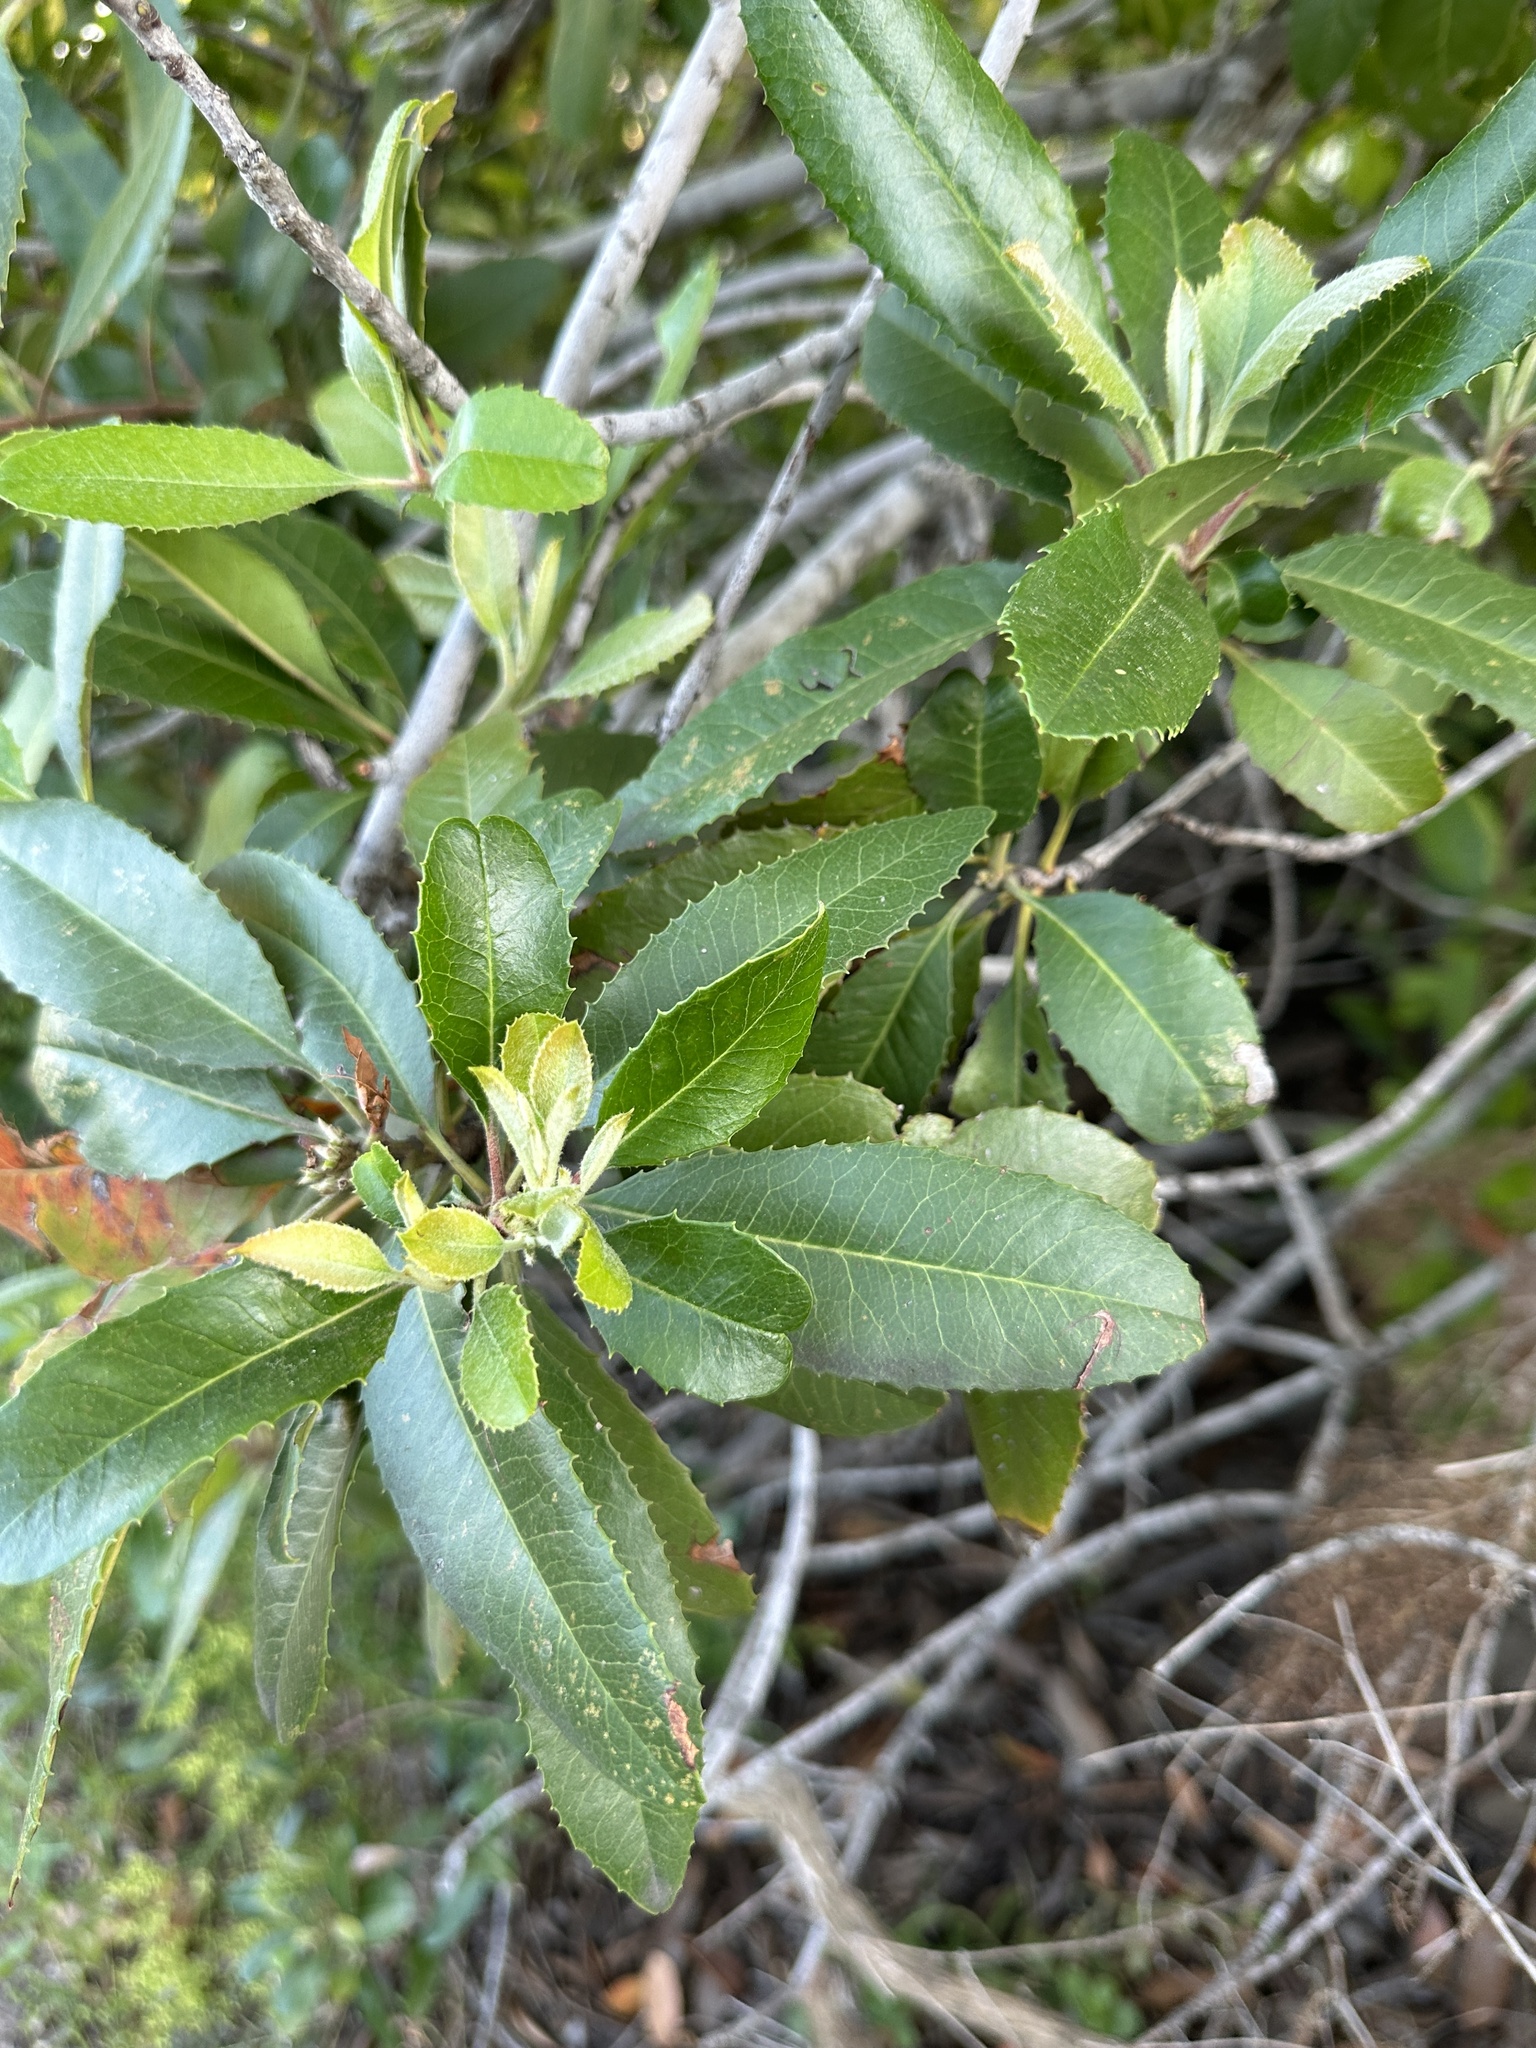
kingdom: Plantae
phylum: Tracheophyta
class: Magnoliopsida
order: Rosales
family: Rosaceae
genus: Heteromeles
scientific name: Heteromeles arbutifolia
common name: California-holly
